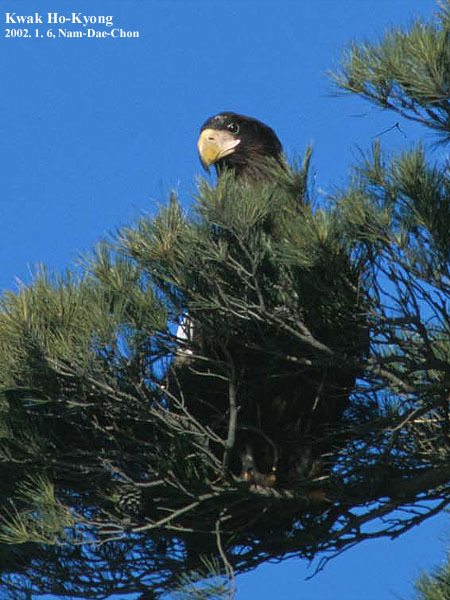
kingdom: Animalia
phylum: Chordata
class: Aves
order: Accipitriformes
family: Accipitridae
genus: Haliaeetus
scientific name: Haliaeetus pelagicus
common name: Steller's sea eagle
